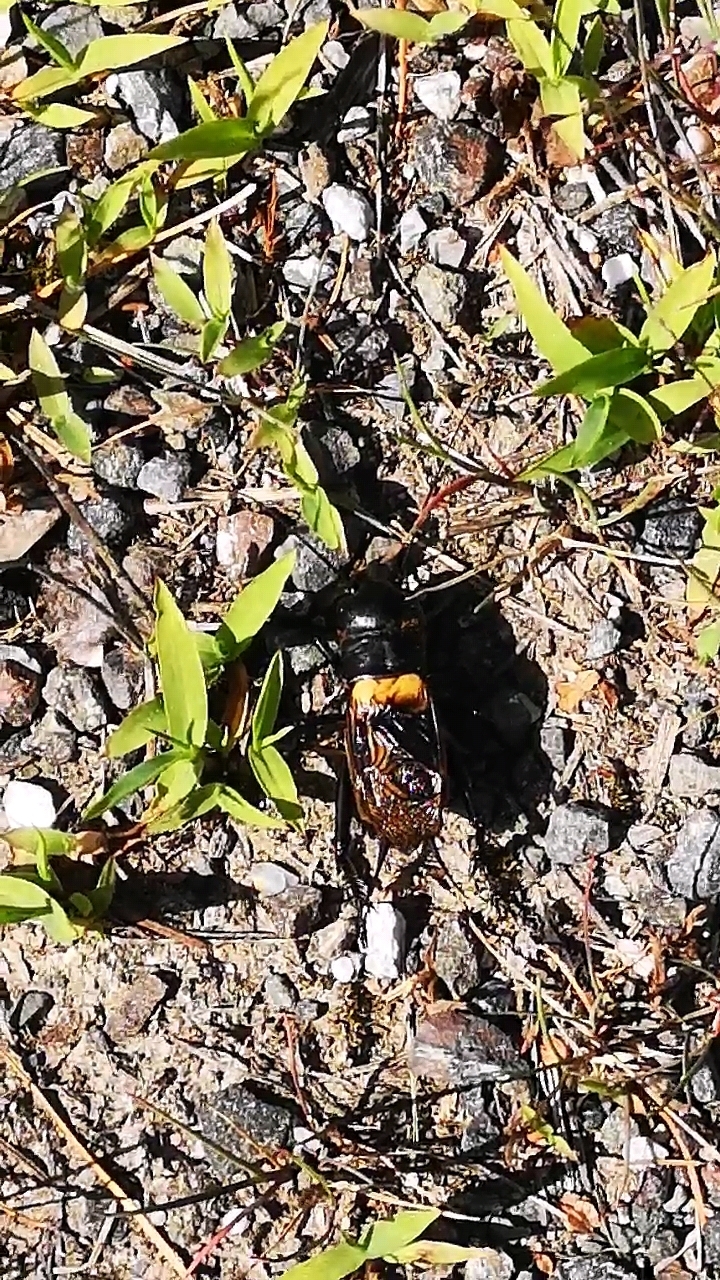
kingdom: Animalia
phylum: Arthropoda
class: Insecta
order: Orthoptera
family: Gryllidae
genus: Gryllus
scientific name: Gryllus campestris
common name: Field cricket
